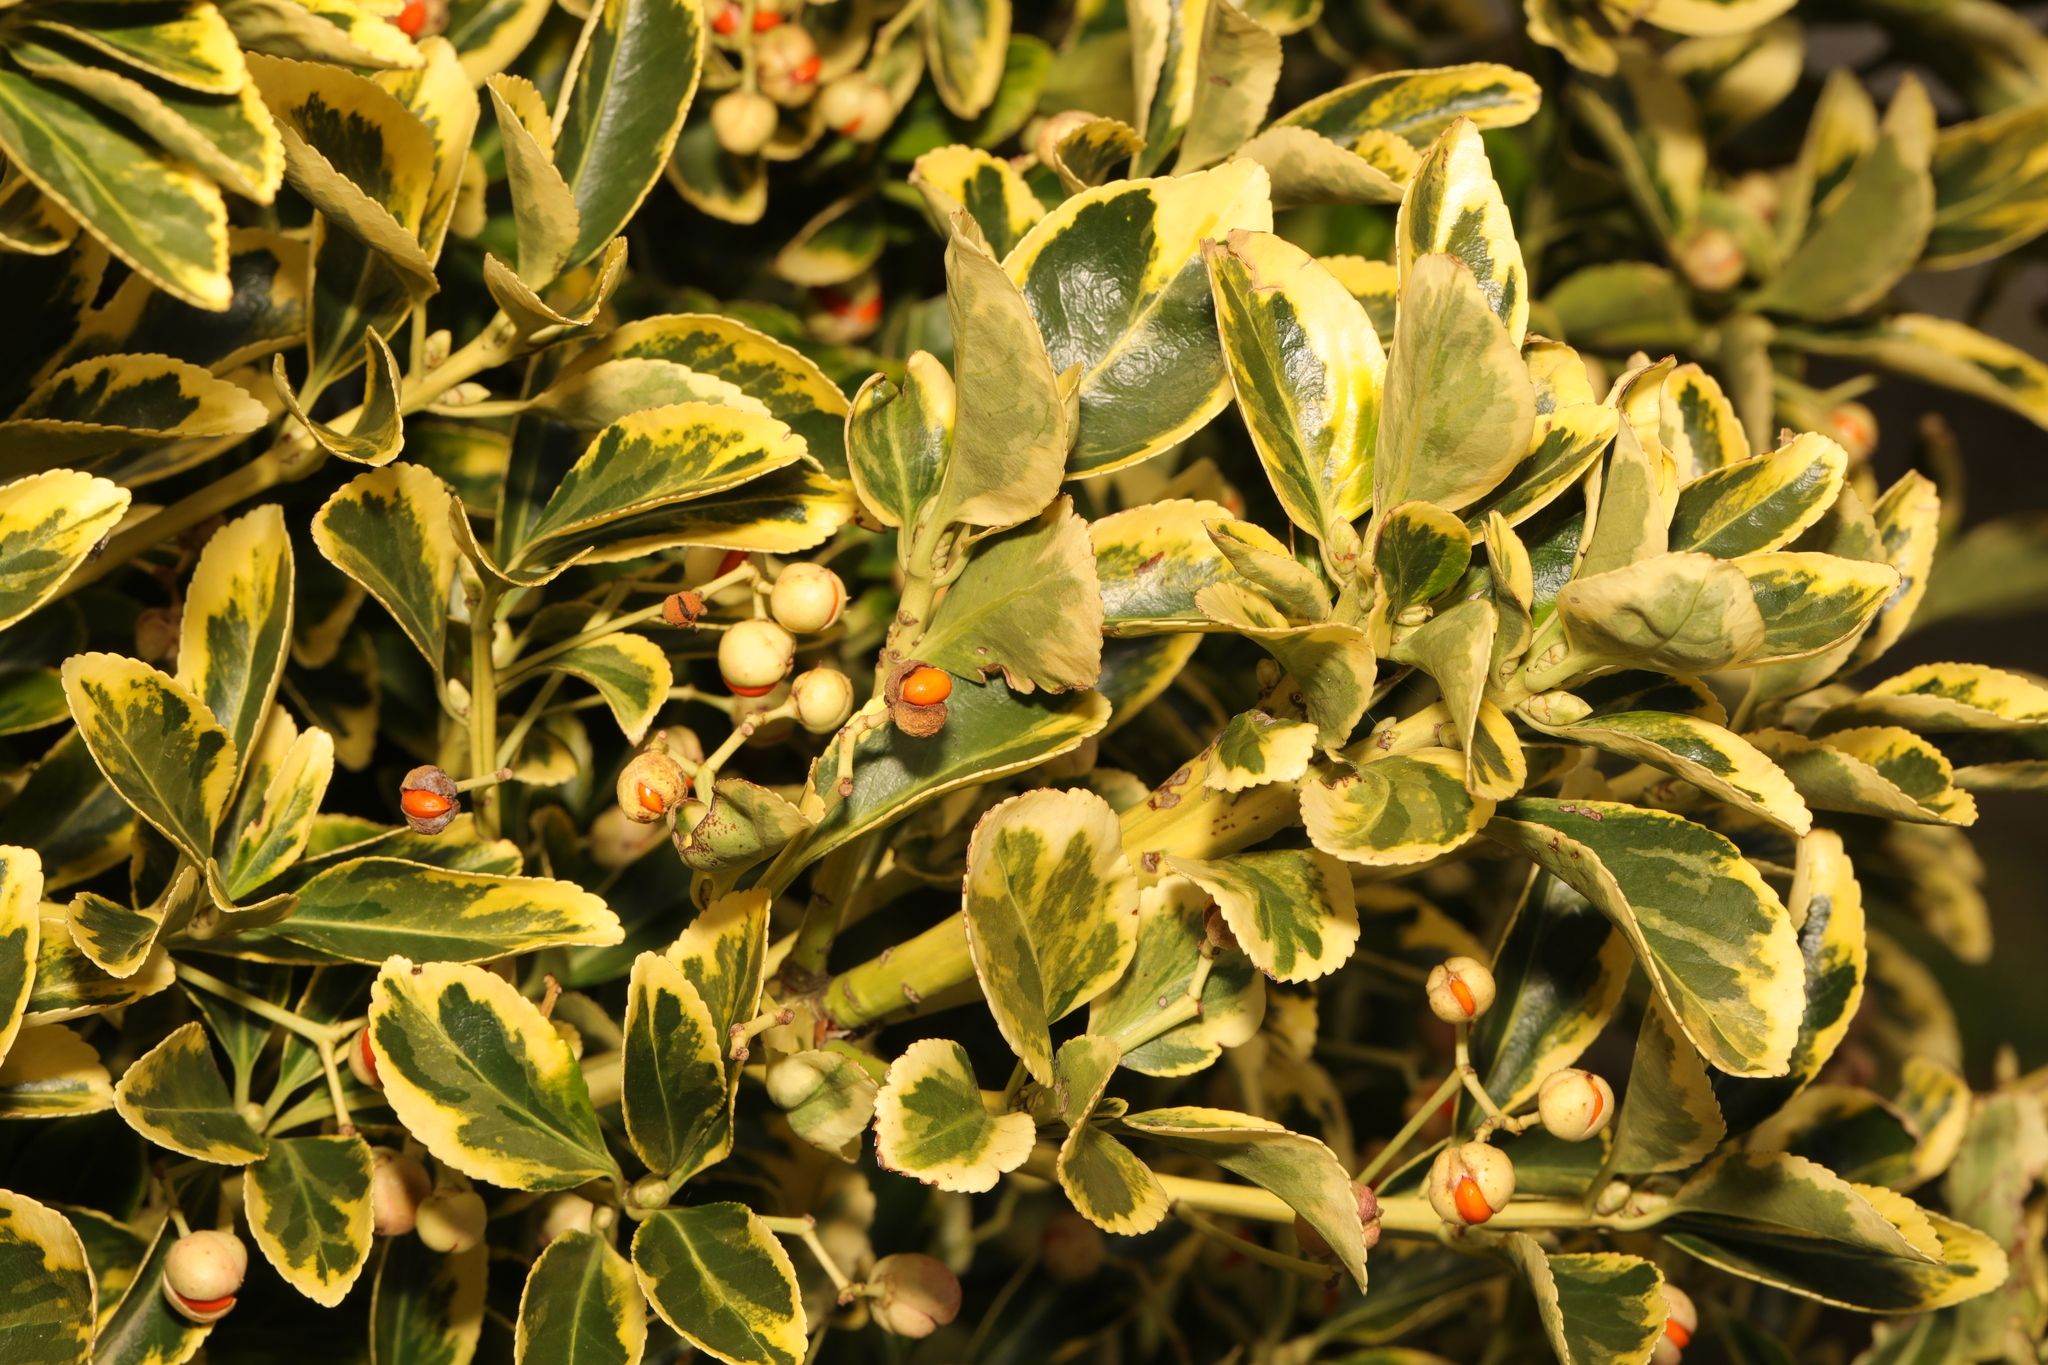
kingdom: Plantae
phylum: Tracheophyta
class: Magnoliopsida
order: Celastrales
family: Celastraceae
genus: Euonymus
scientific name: Euonymus japonicus
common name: Japanese spindletree
